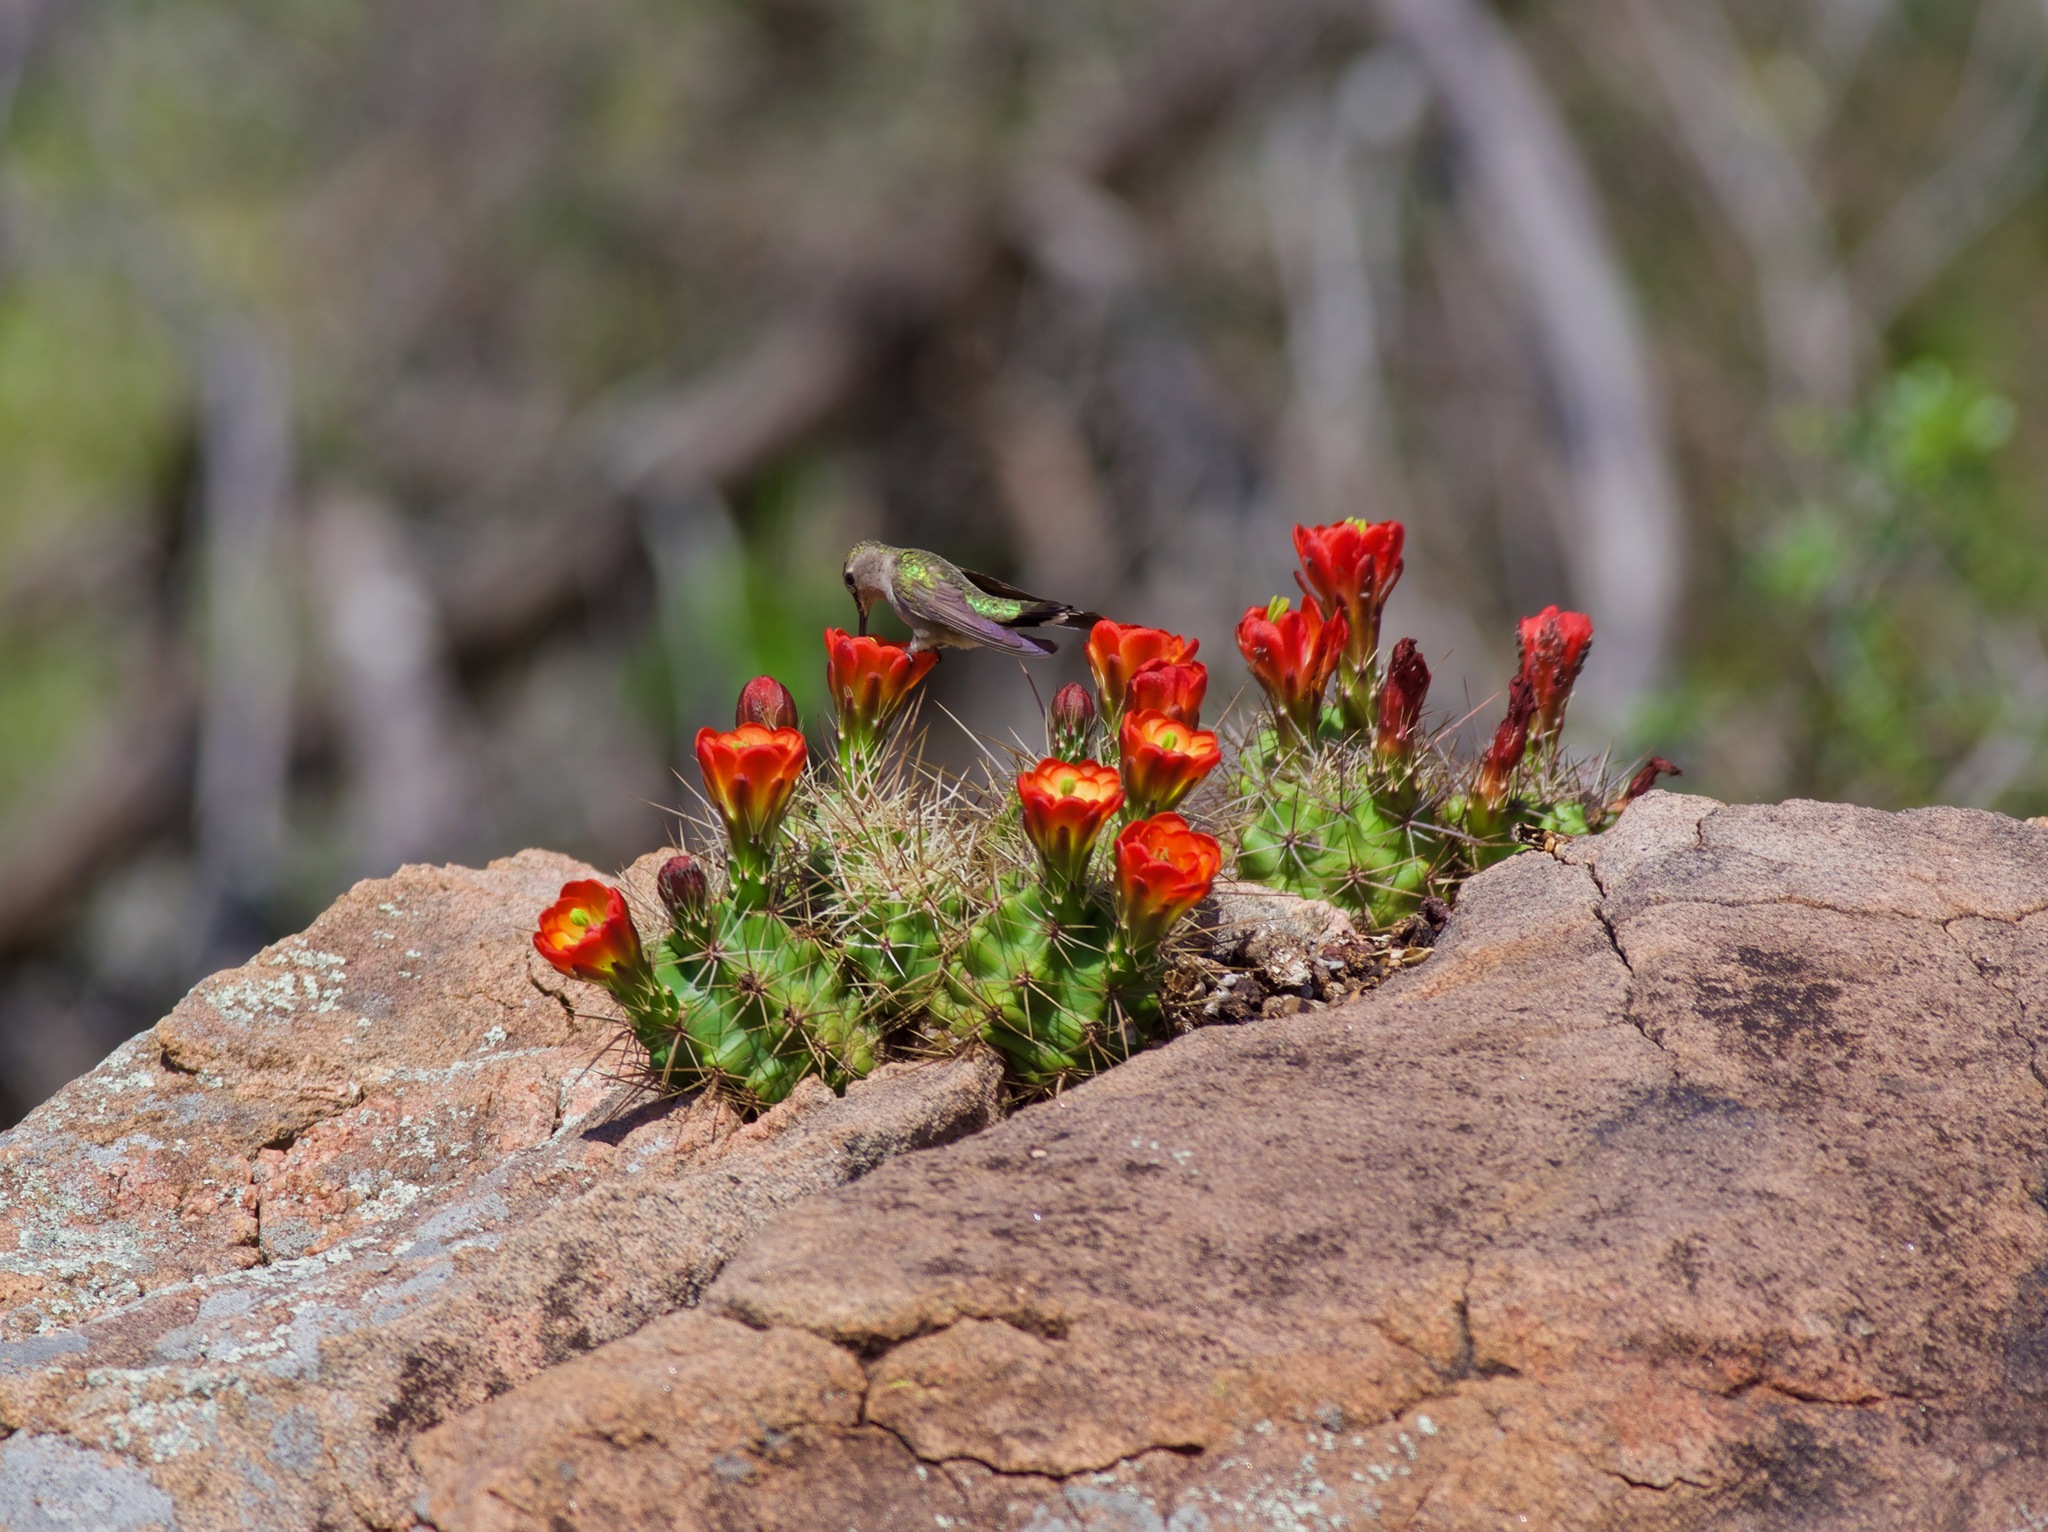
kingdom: Animalia
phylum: Chordata
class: Aves
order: Apodiformes
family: Trochilidae
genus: Archilochus
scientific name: Archilochus alexandri
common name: Black-chinned hummingbird
